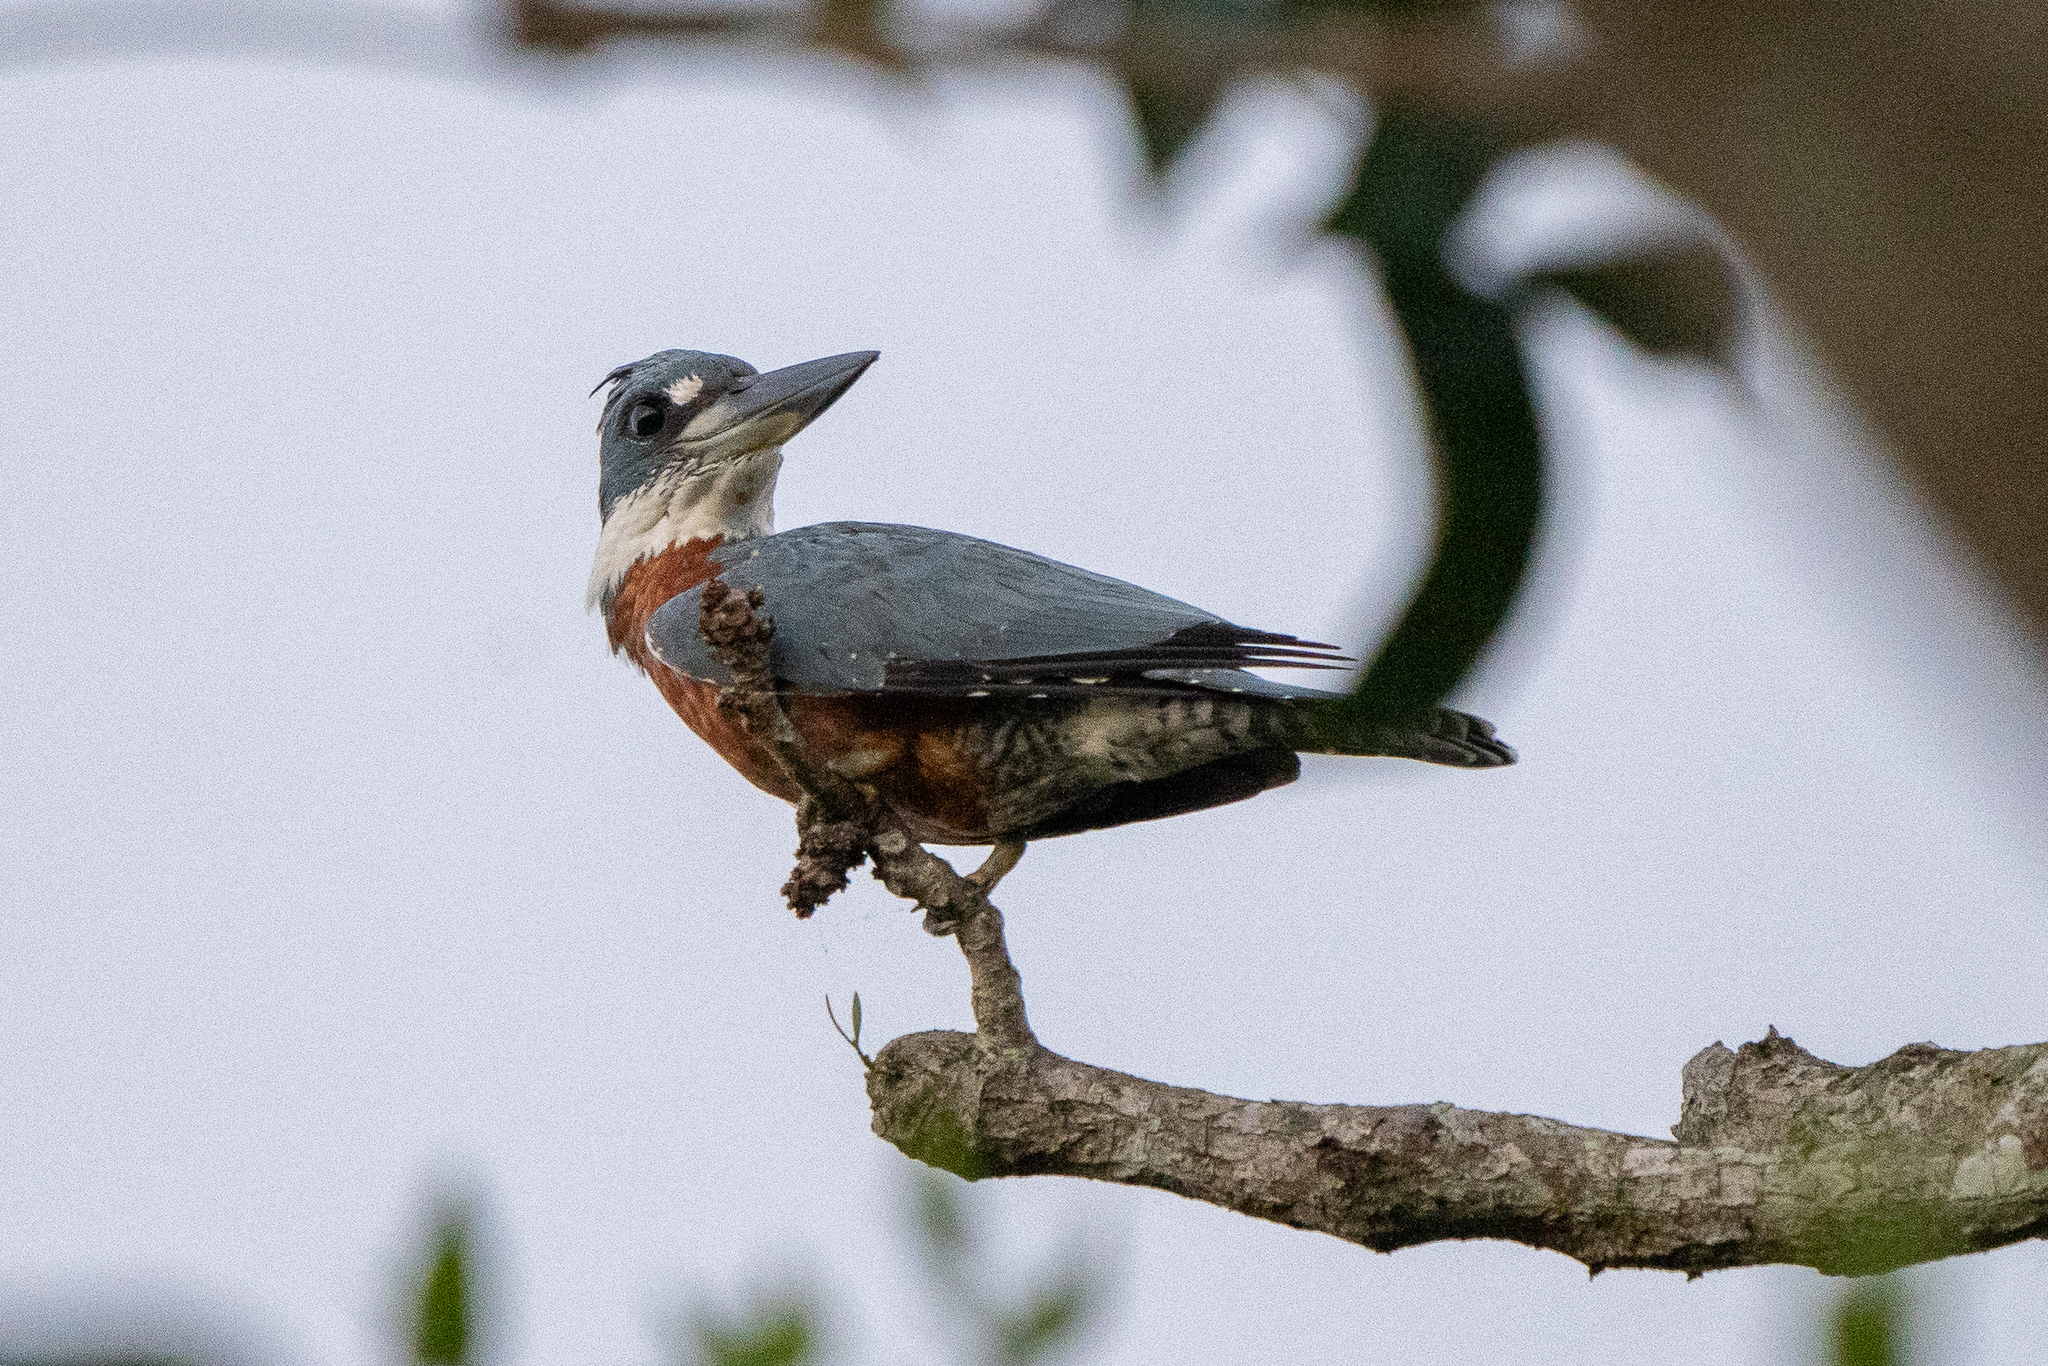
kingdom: Animalia
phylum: Chordata
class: Aves
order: Coraciiformes
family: Alcedinidae
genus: Megaceryle
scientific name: Megaceryle torquata
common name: Ringed kingfisher
